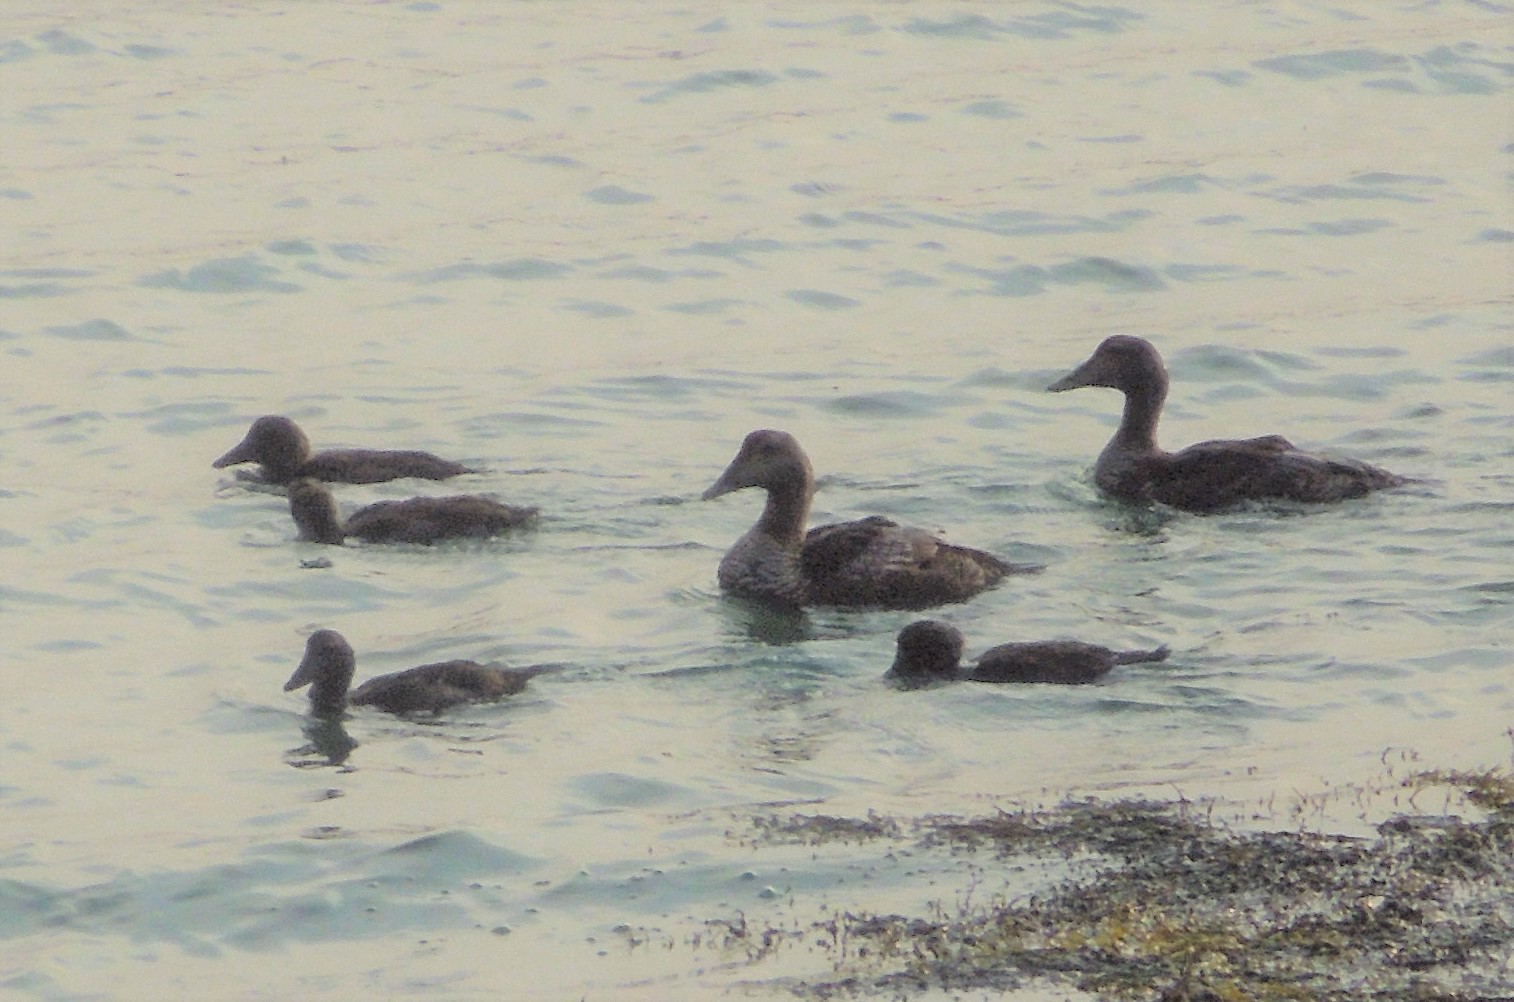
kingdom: Animalia
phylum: Chordata
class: Aves
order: Anseriformes
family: Anatidae
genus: Somateria
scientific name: Somateria mollissima
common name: Common eider
